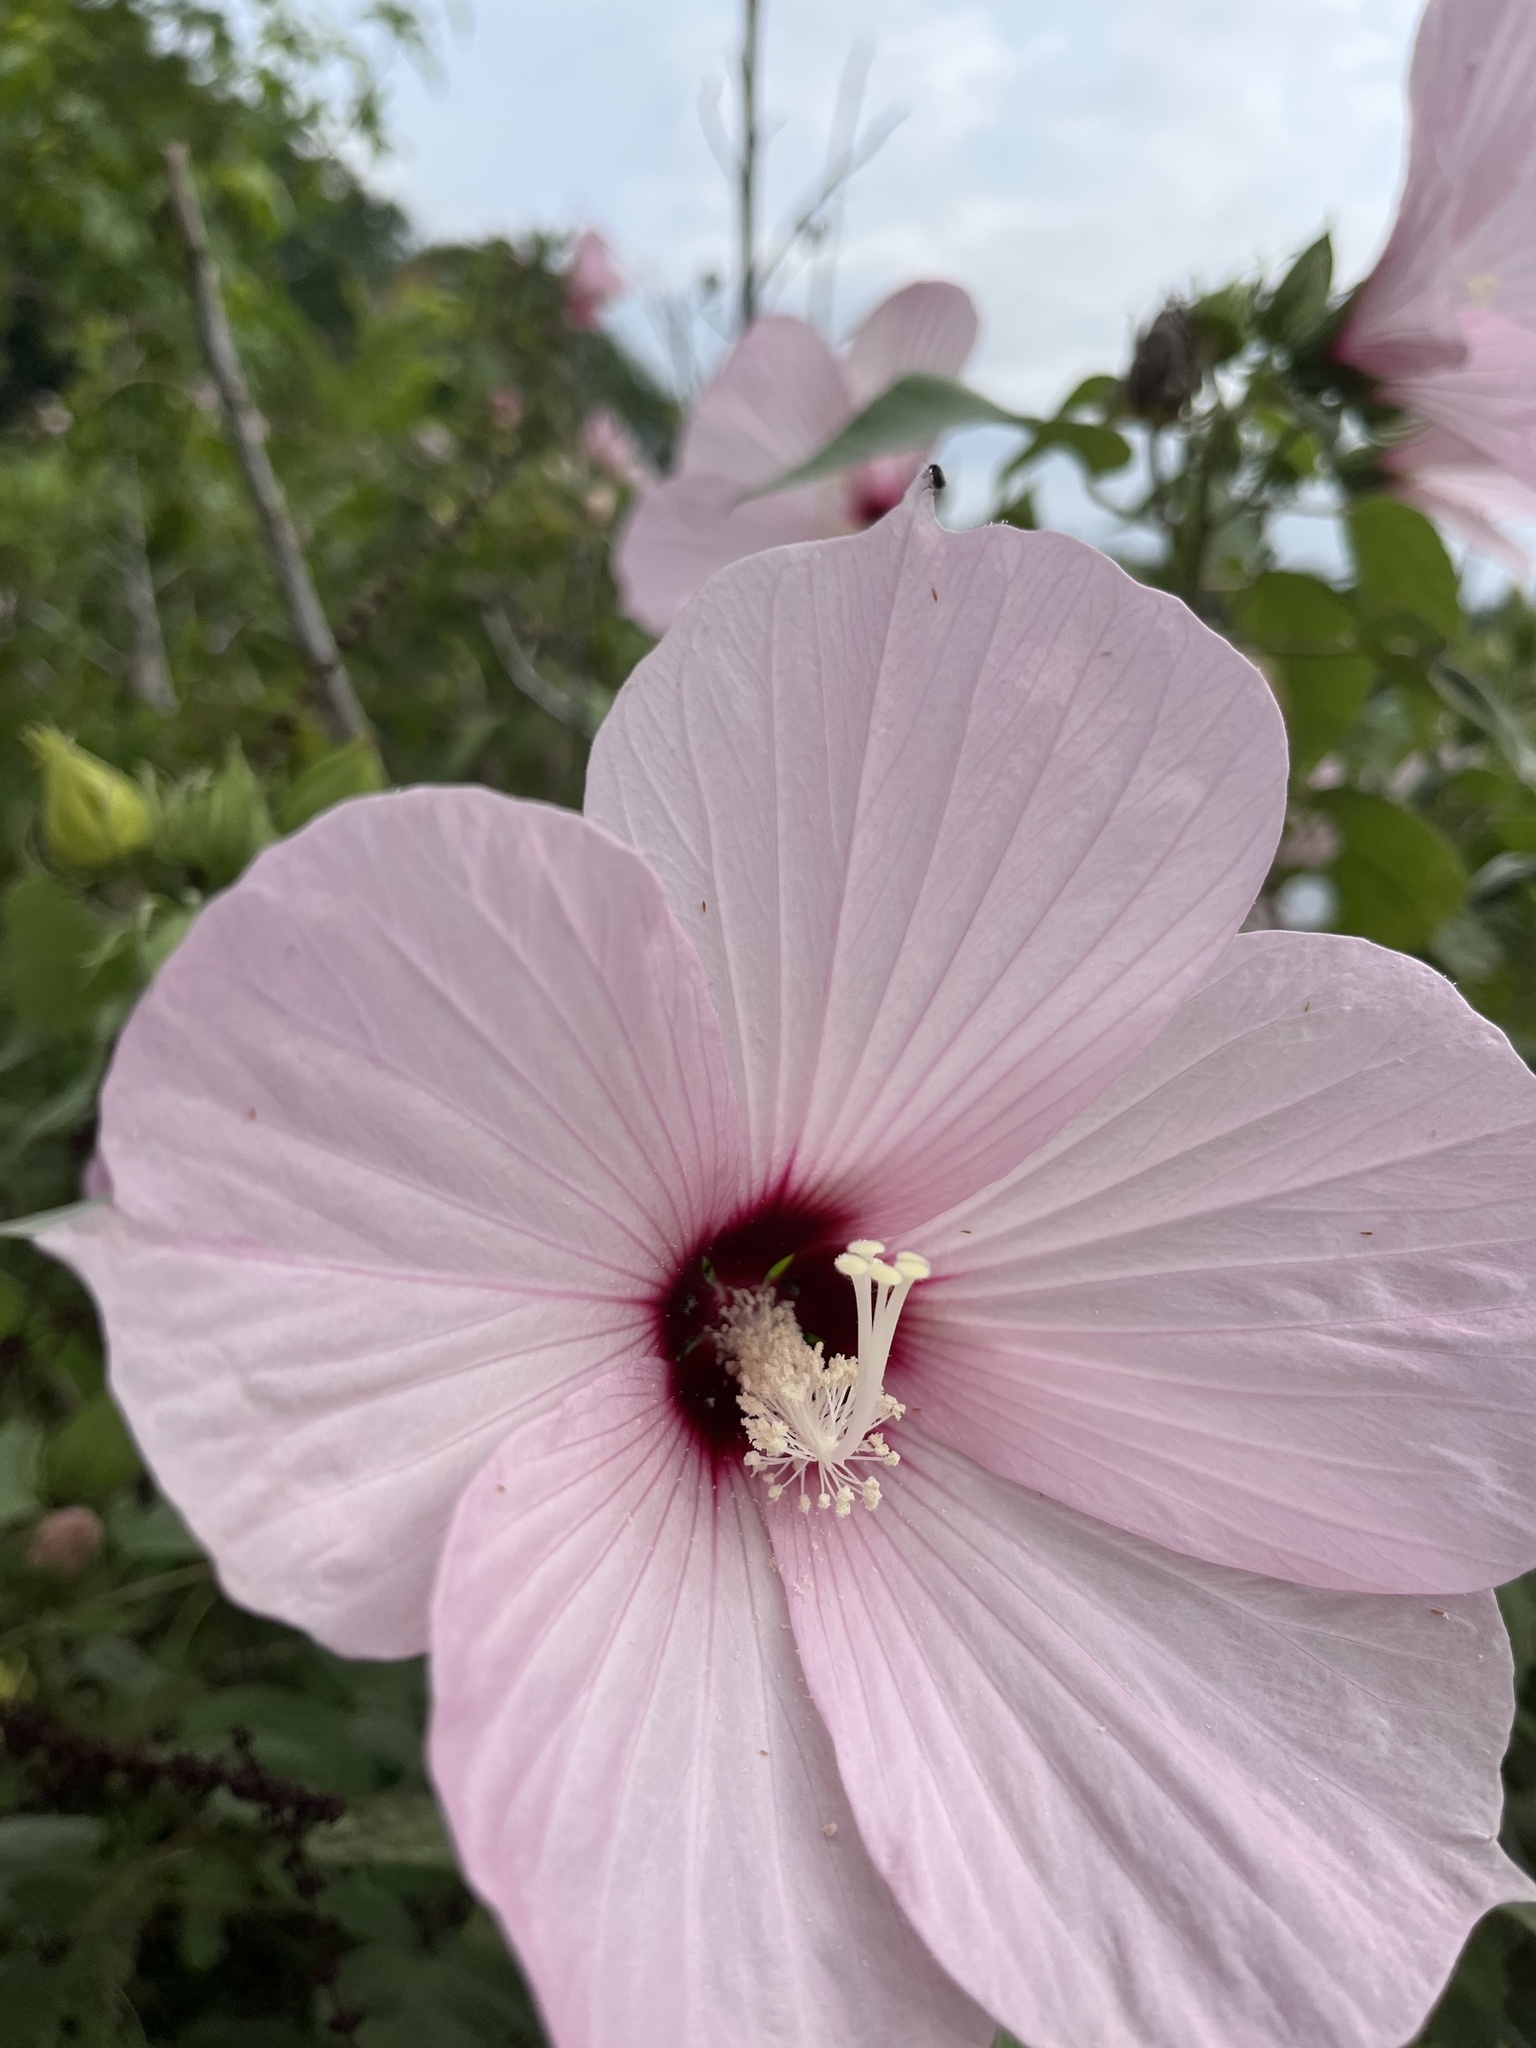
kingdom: Plantae
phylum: Tracheophyta
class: Magnoliopsida
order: Malvales
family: Malvaceae
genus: Hibiscus
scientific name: Hibiscus moscheutos
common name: Common rose-mallow
